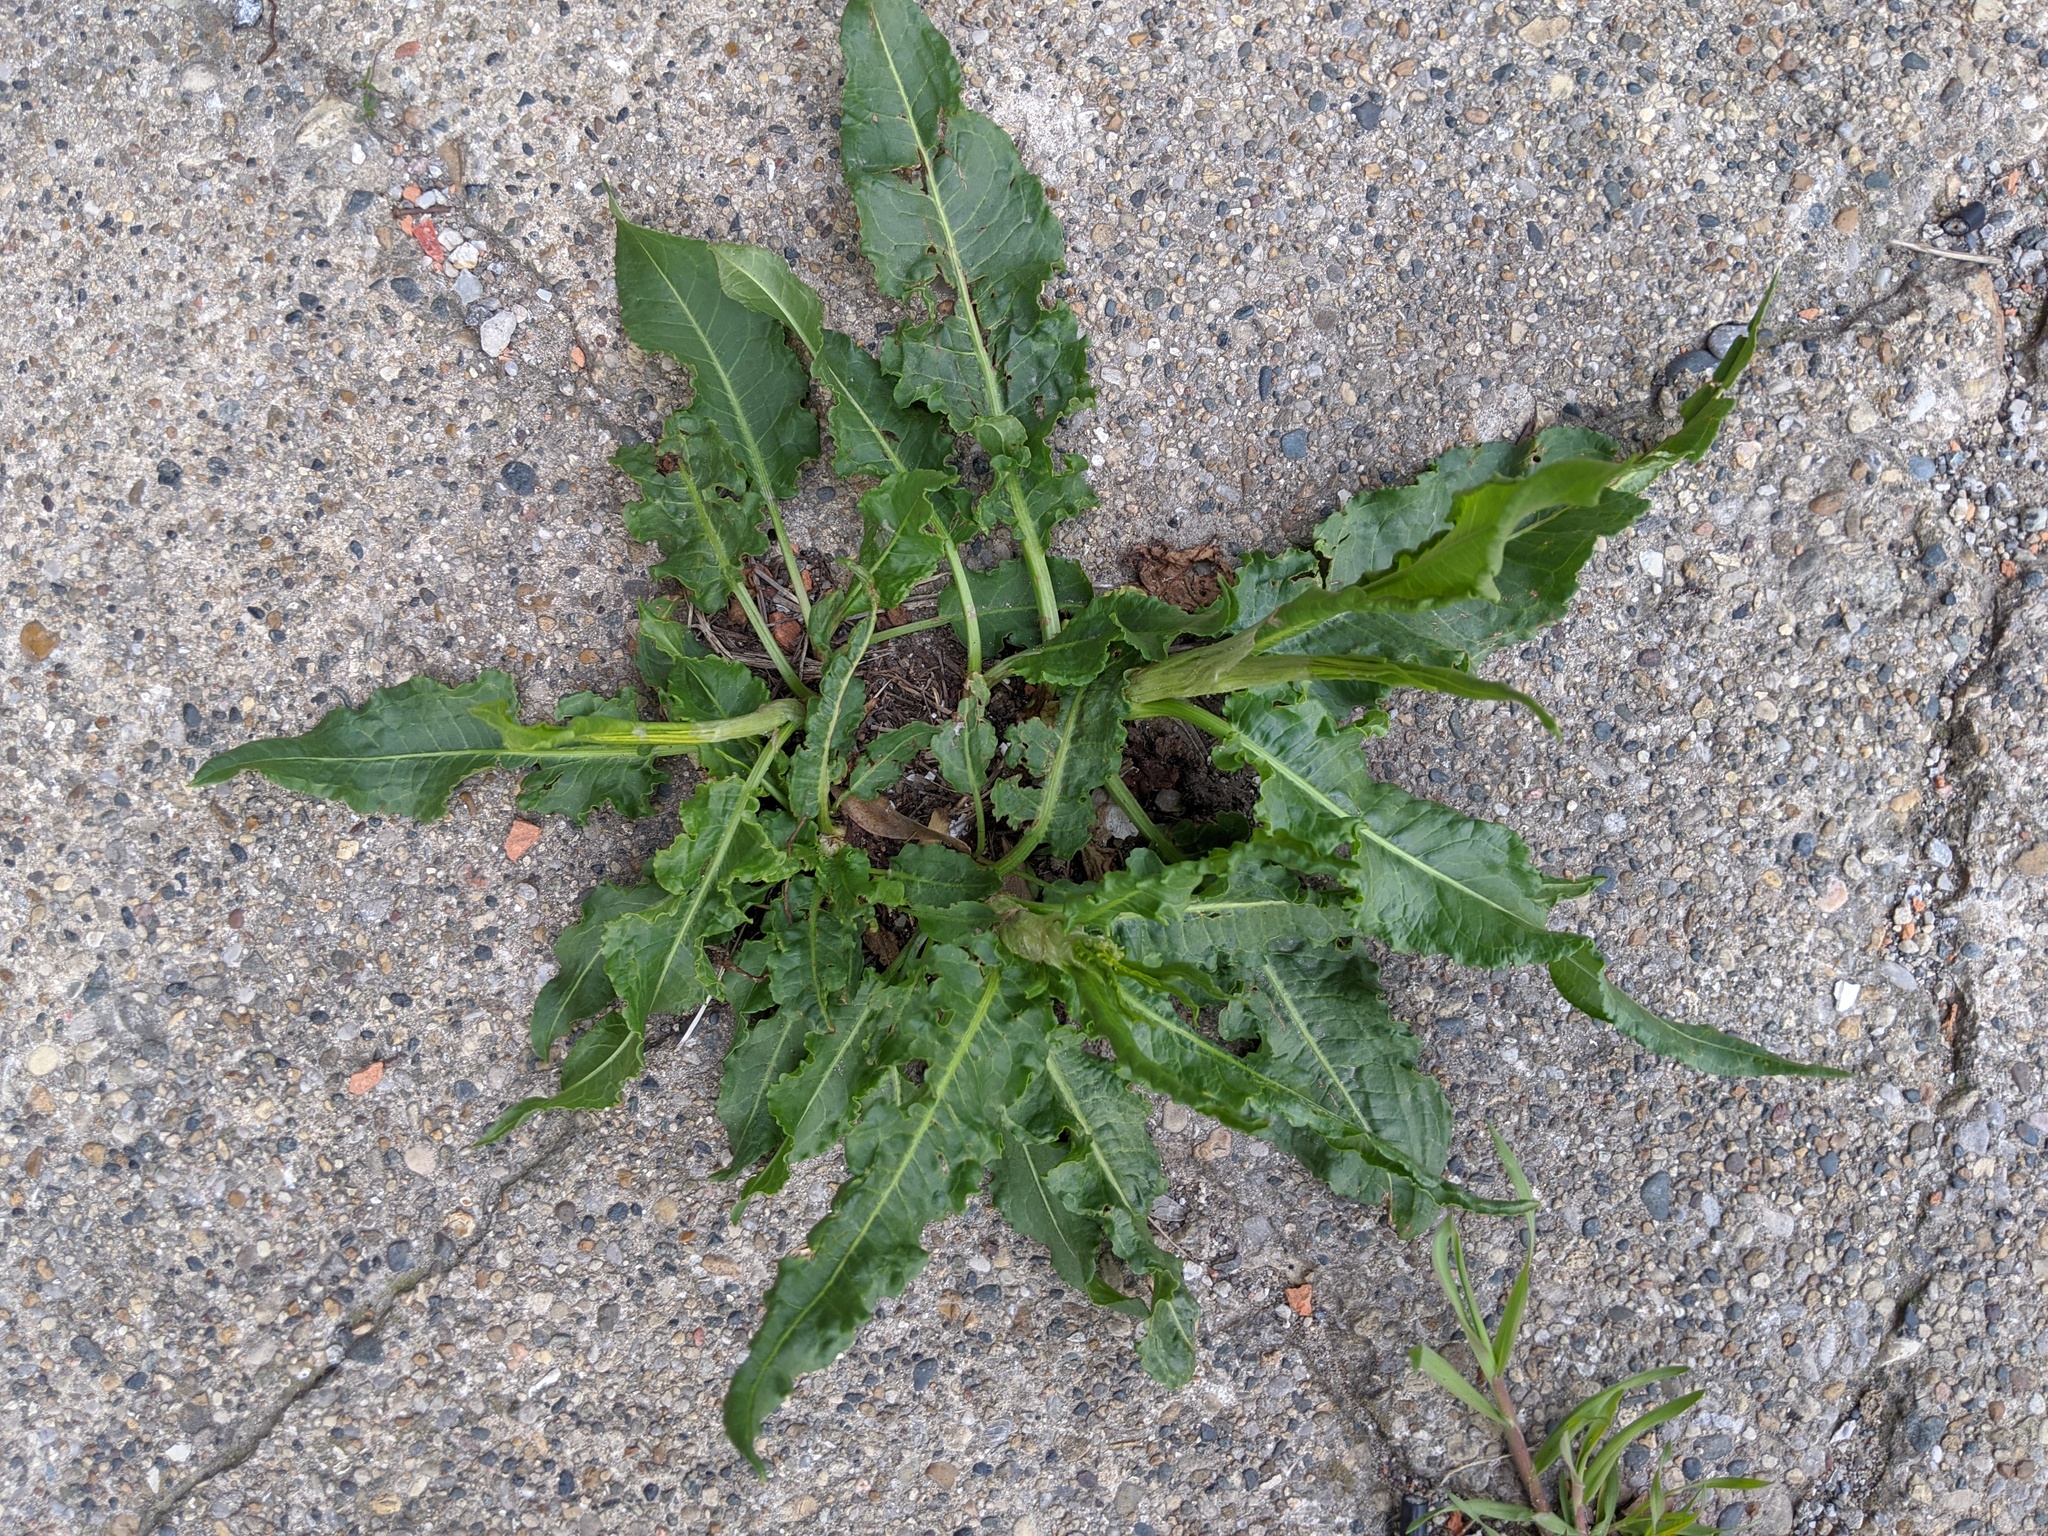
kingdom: Plantae
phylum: Tracheophyta
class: Magnoliopsida
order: Caryophyllales
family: Polygonaceae
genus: Rumex
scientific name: Rumex crispus
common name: Curled dock
